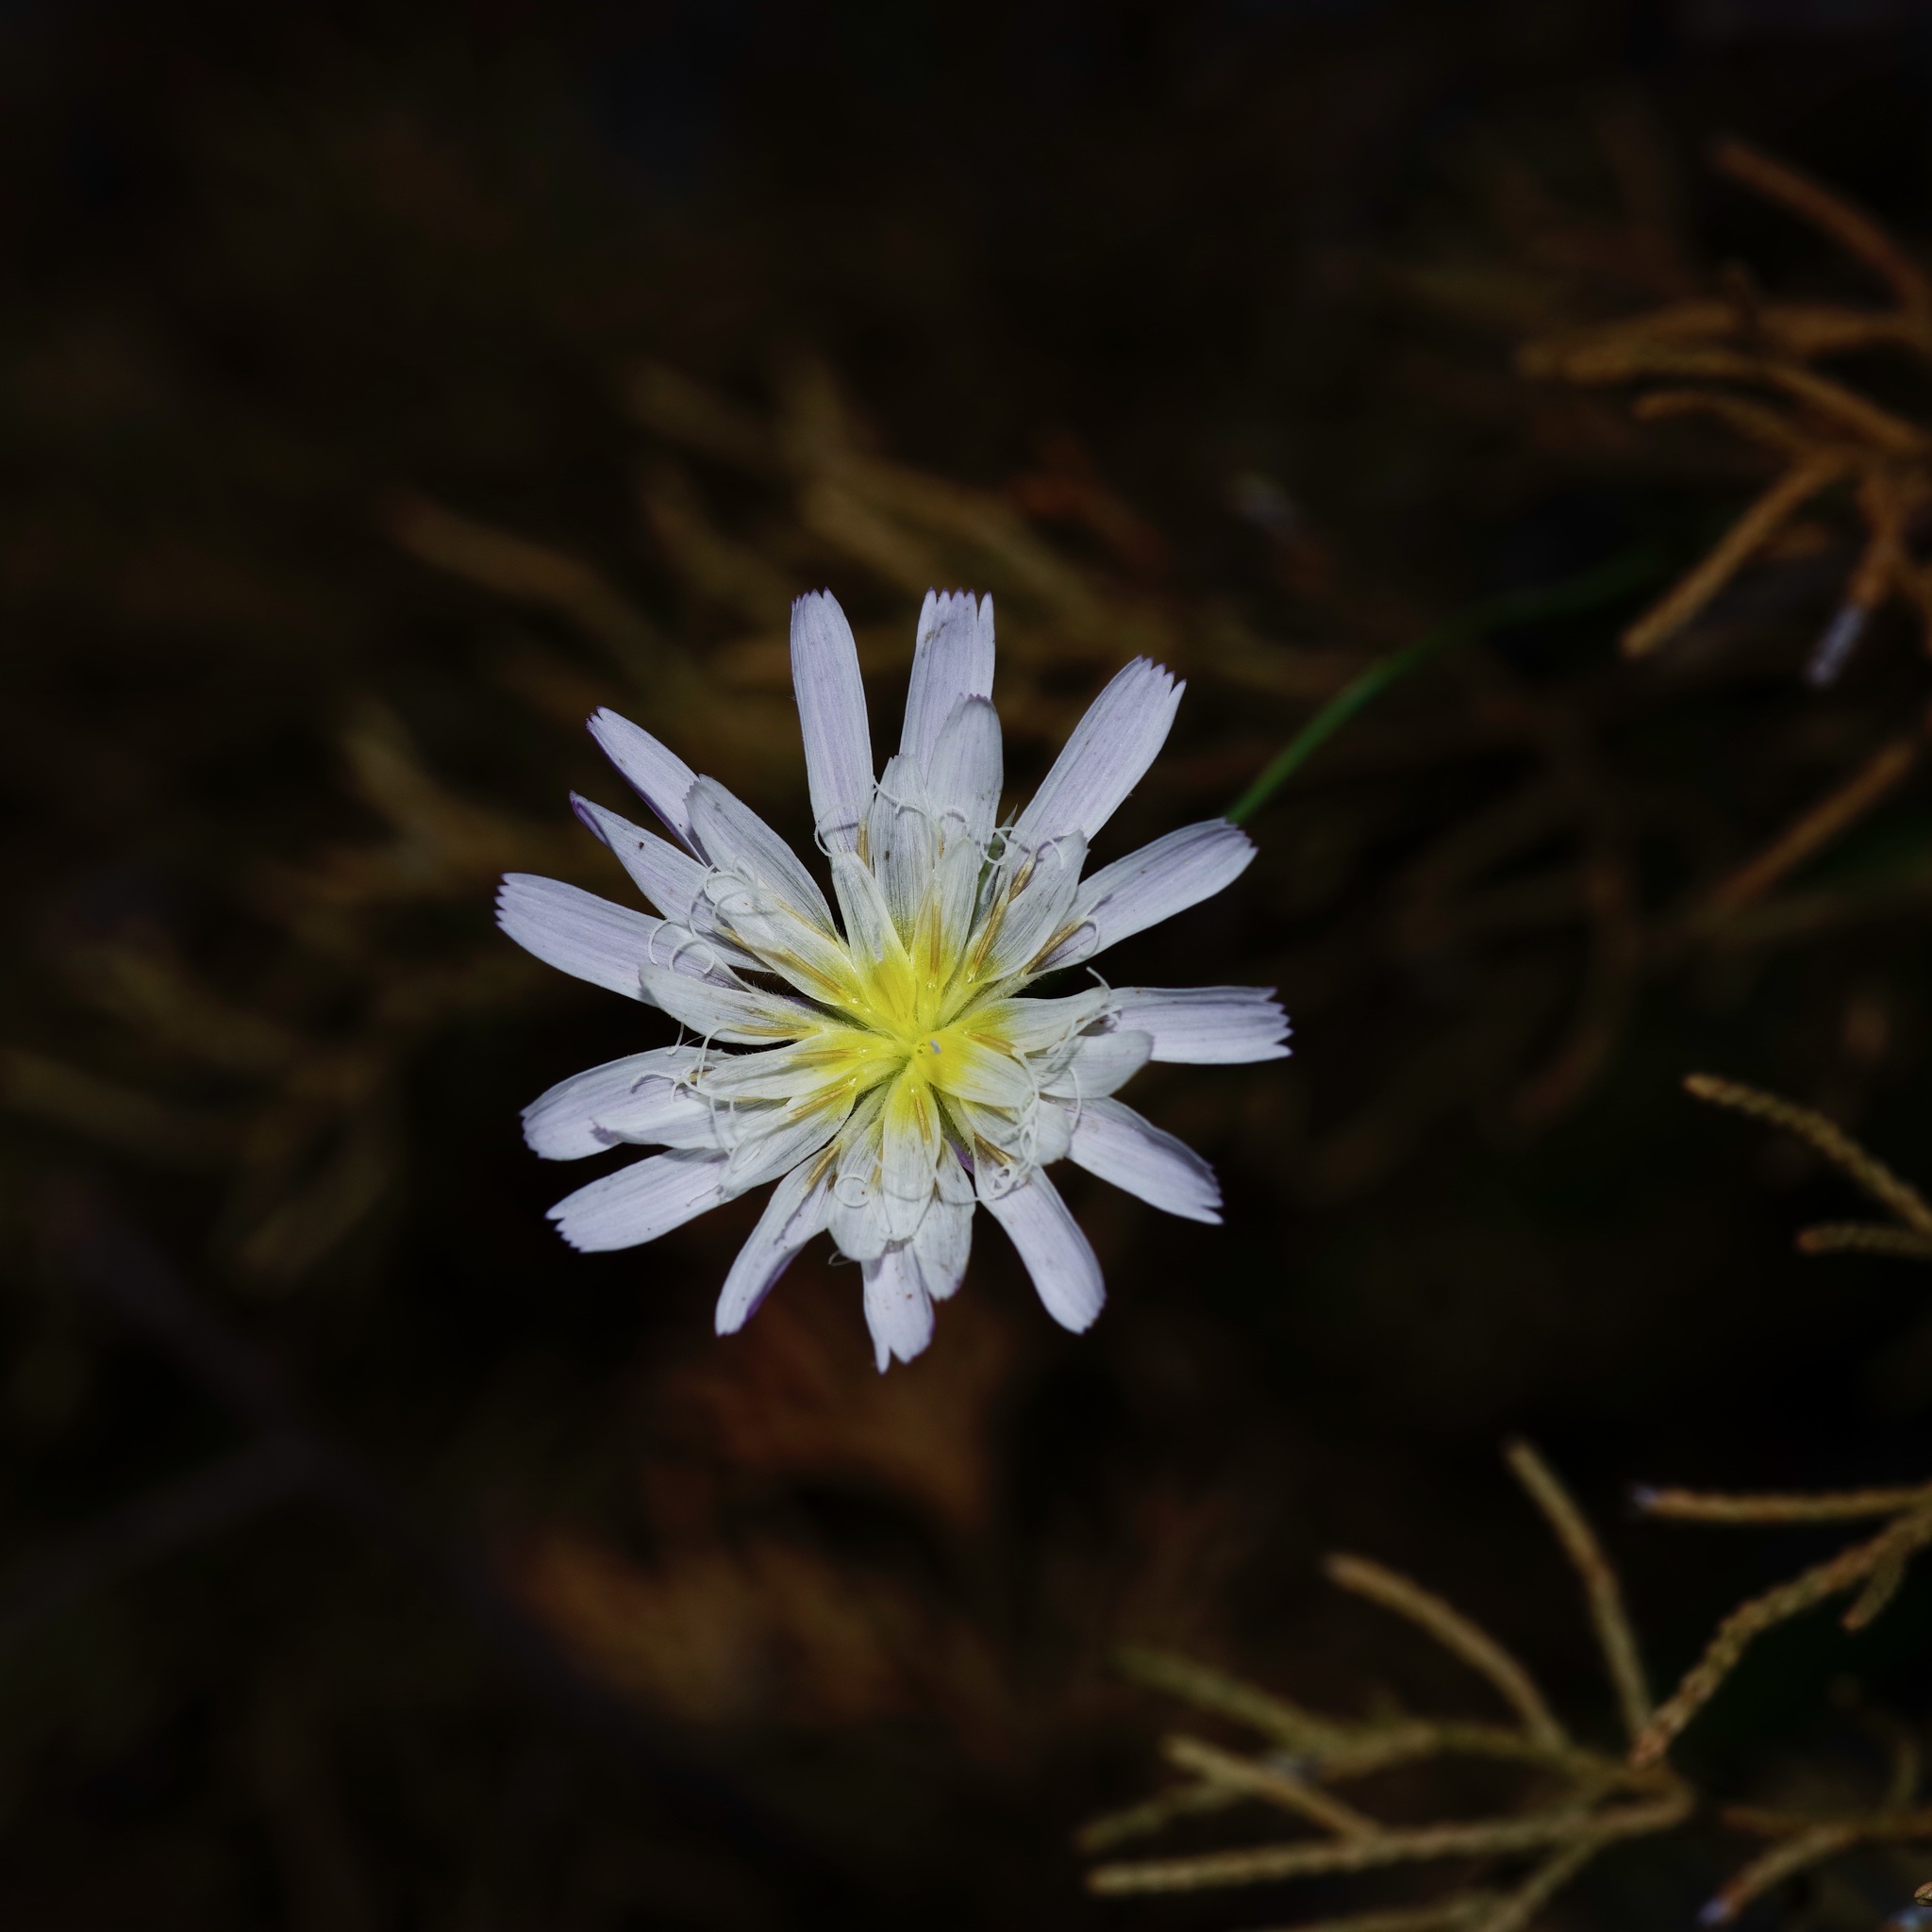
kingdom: Plantae
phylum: Tracheophyta
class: Magnoliopsida
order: Asterales
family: Asteraceae
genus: Pinaropappus
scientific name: Pinaropappus roseus
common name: Rock-lettuce
